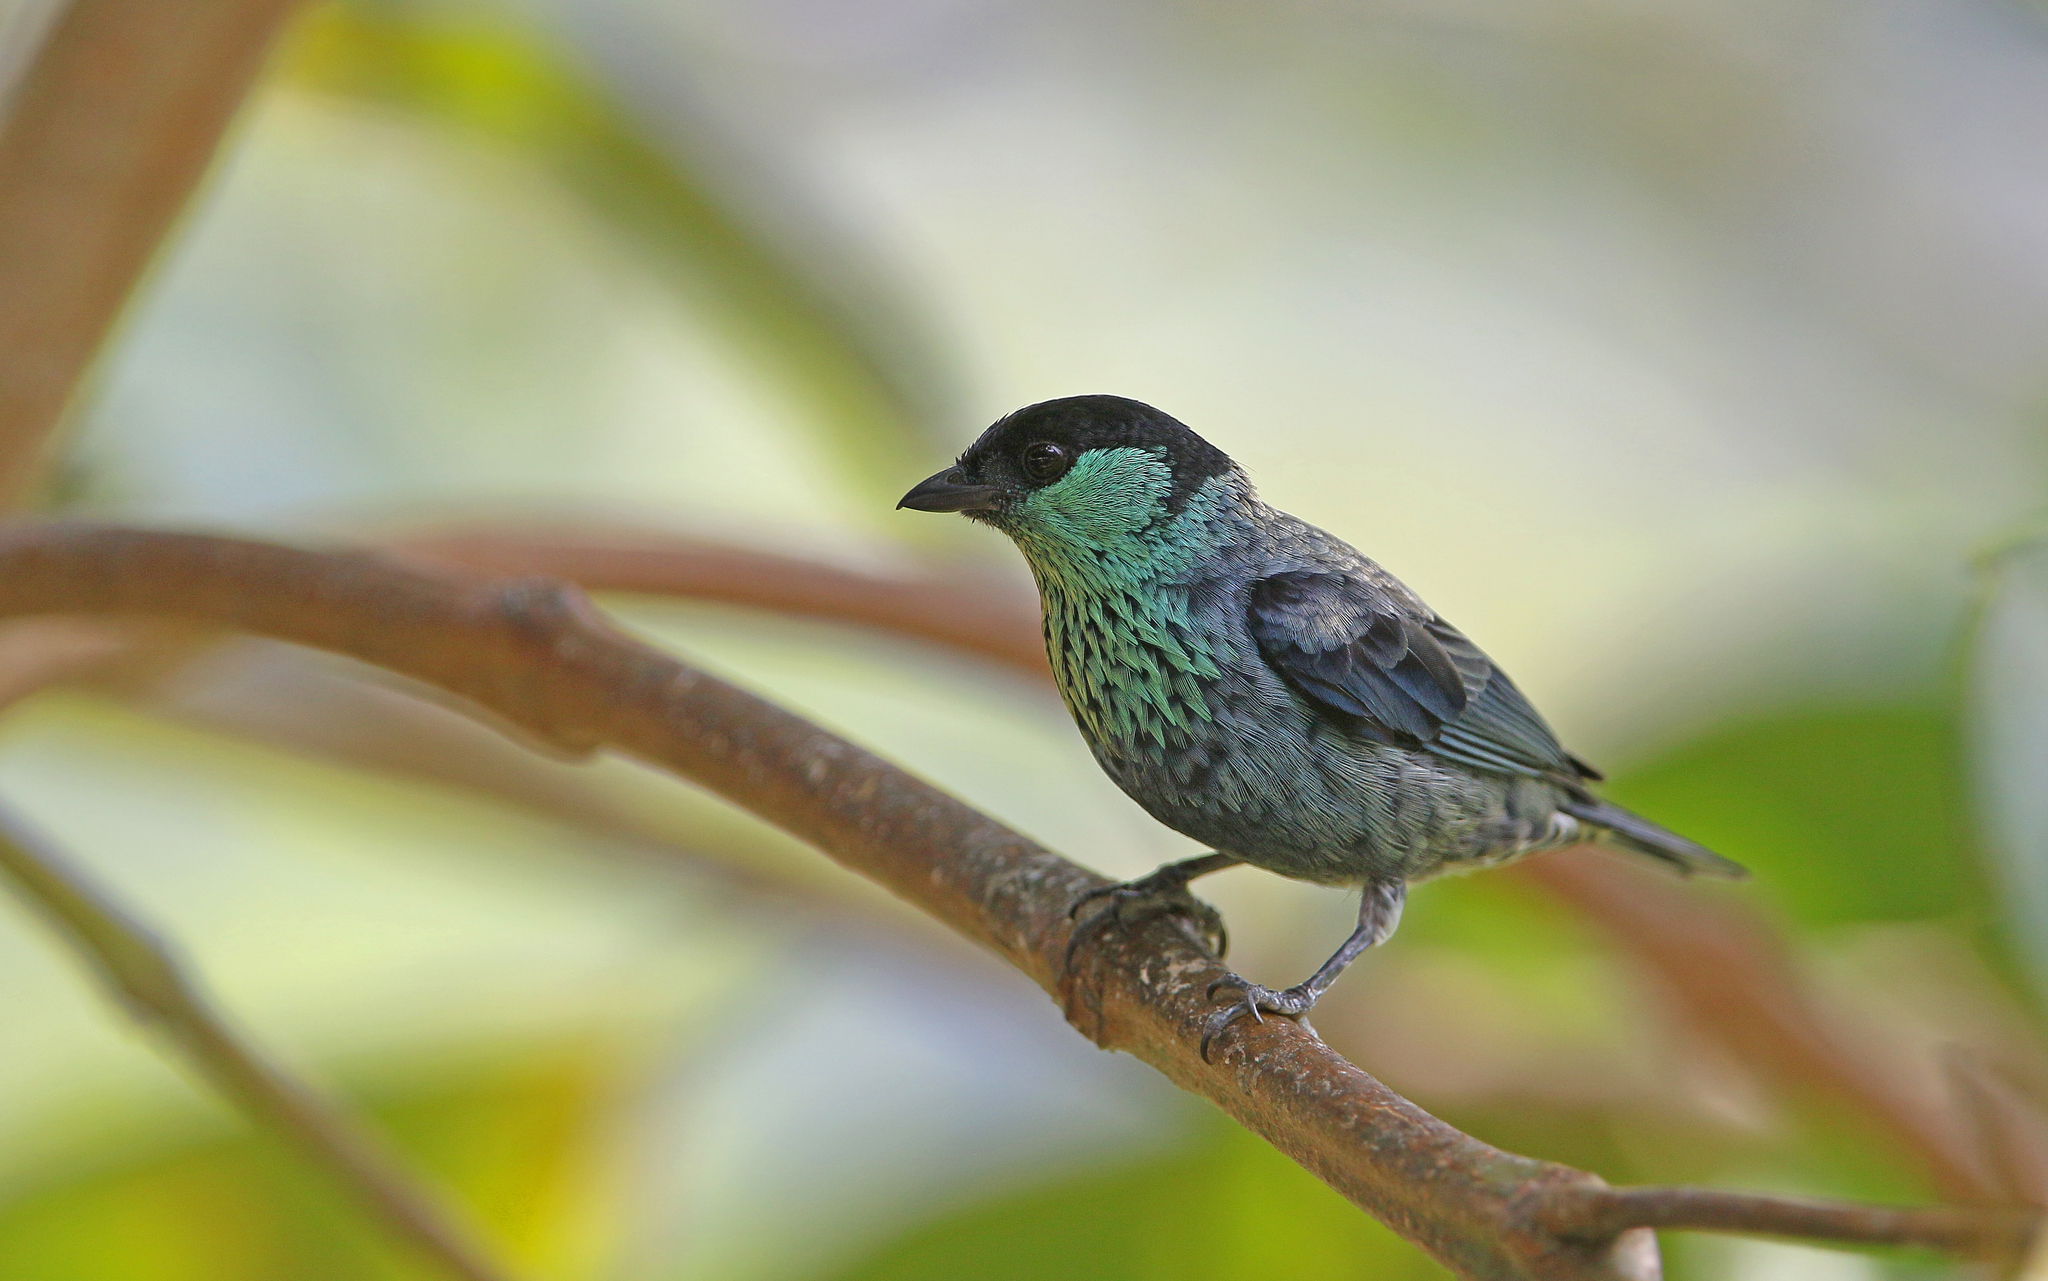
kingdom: Animalia
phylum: Chordata
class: Aves
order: Passeriformes
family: Thraupidae
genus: Stilpnia
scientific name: Stilpnia heinei
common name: Black-capped tanager
